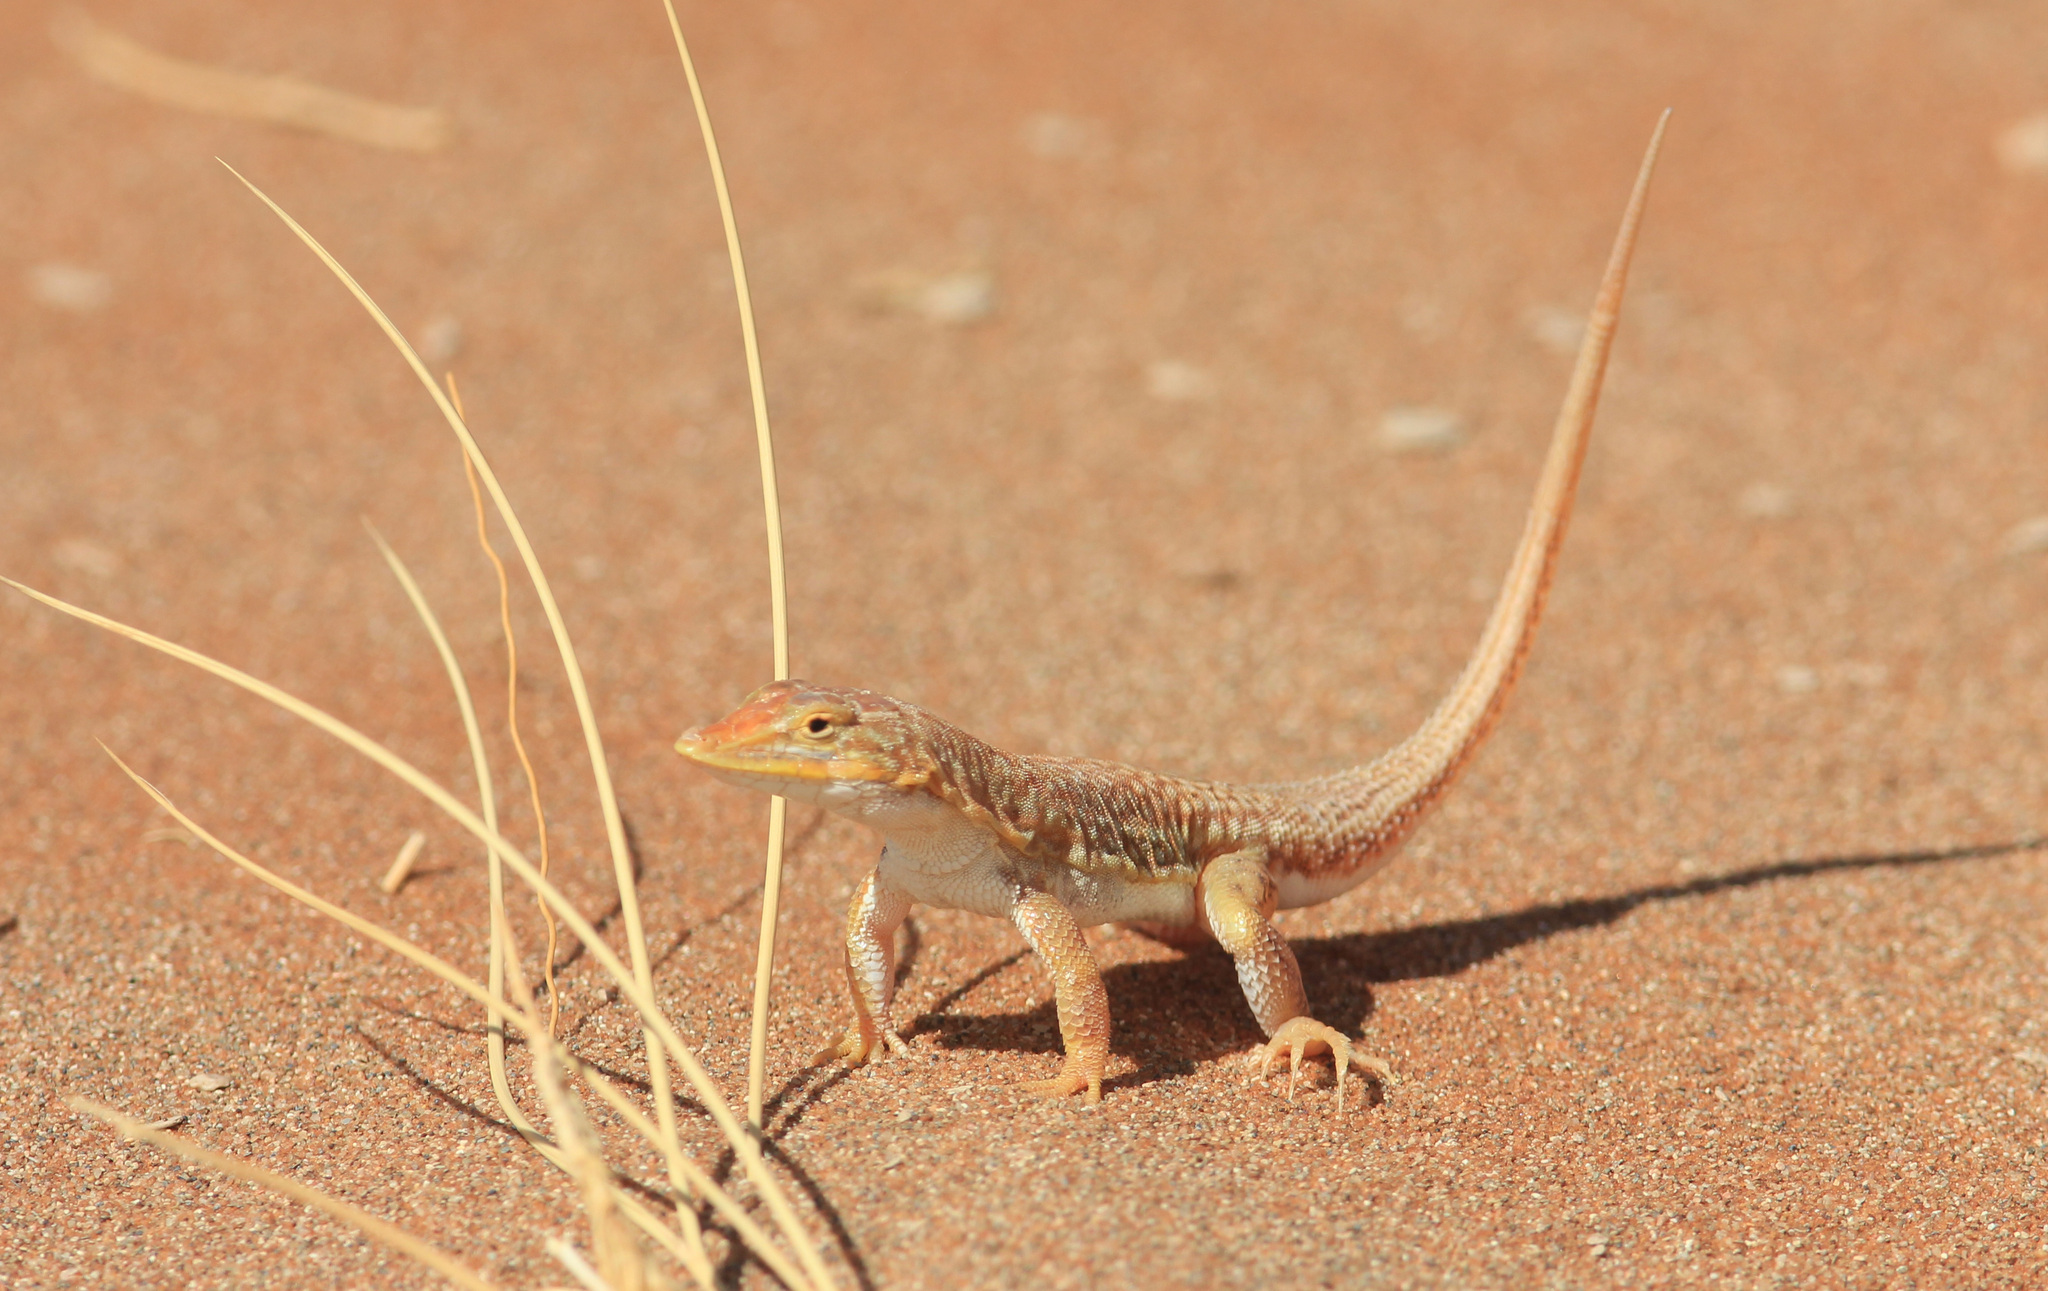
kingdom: Animalia
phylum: Chordata
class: Squamata
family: Lacertidae
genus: Meroles
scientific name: Meroles cuneirostris
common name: Wedge-snouted desert lizard
